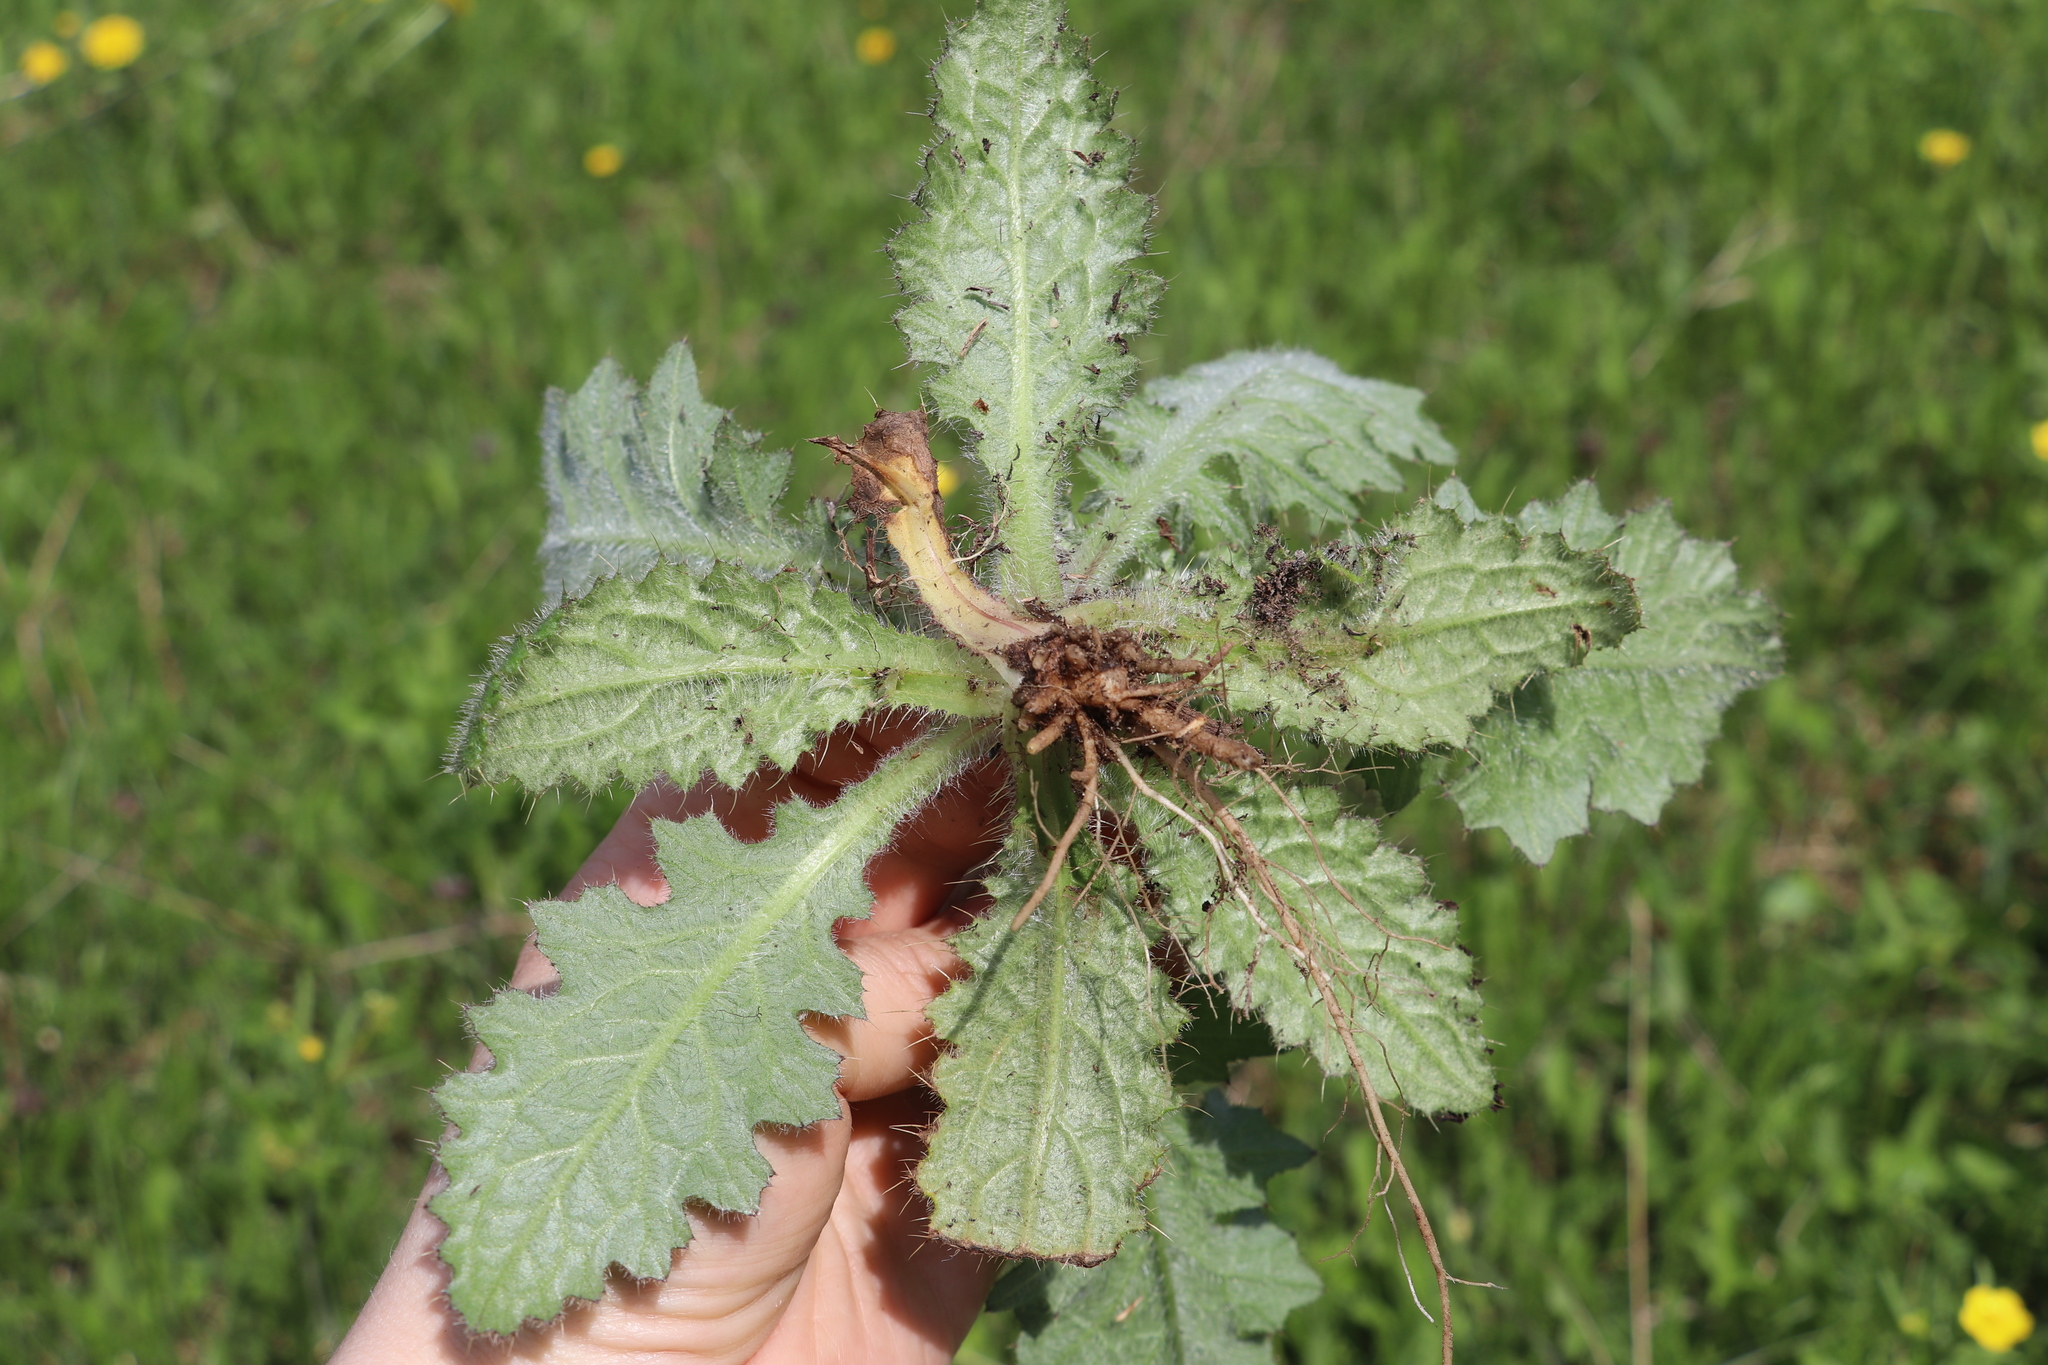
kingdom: Plantae
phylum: Tracheophyta
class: Magnoliopsida
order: Asterales
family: Asteraceae
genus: Cirsium
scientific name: Cirsium vulgare
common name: Bull thistle
